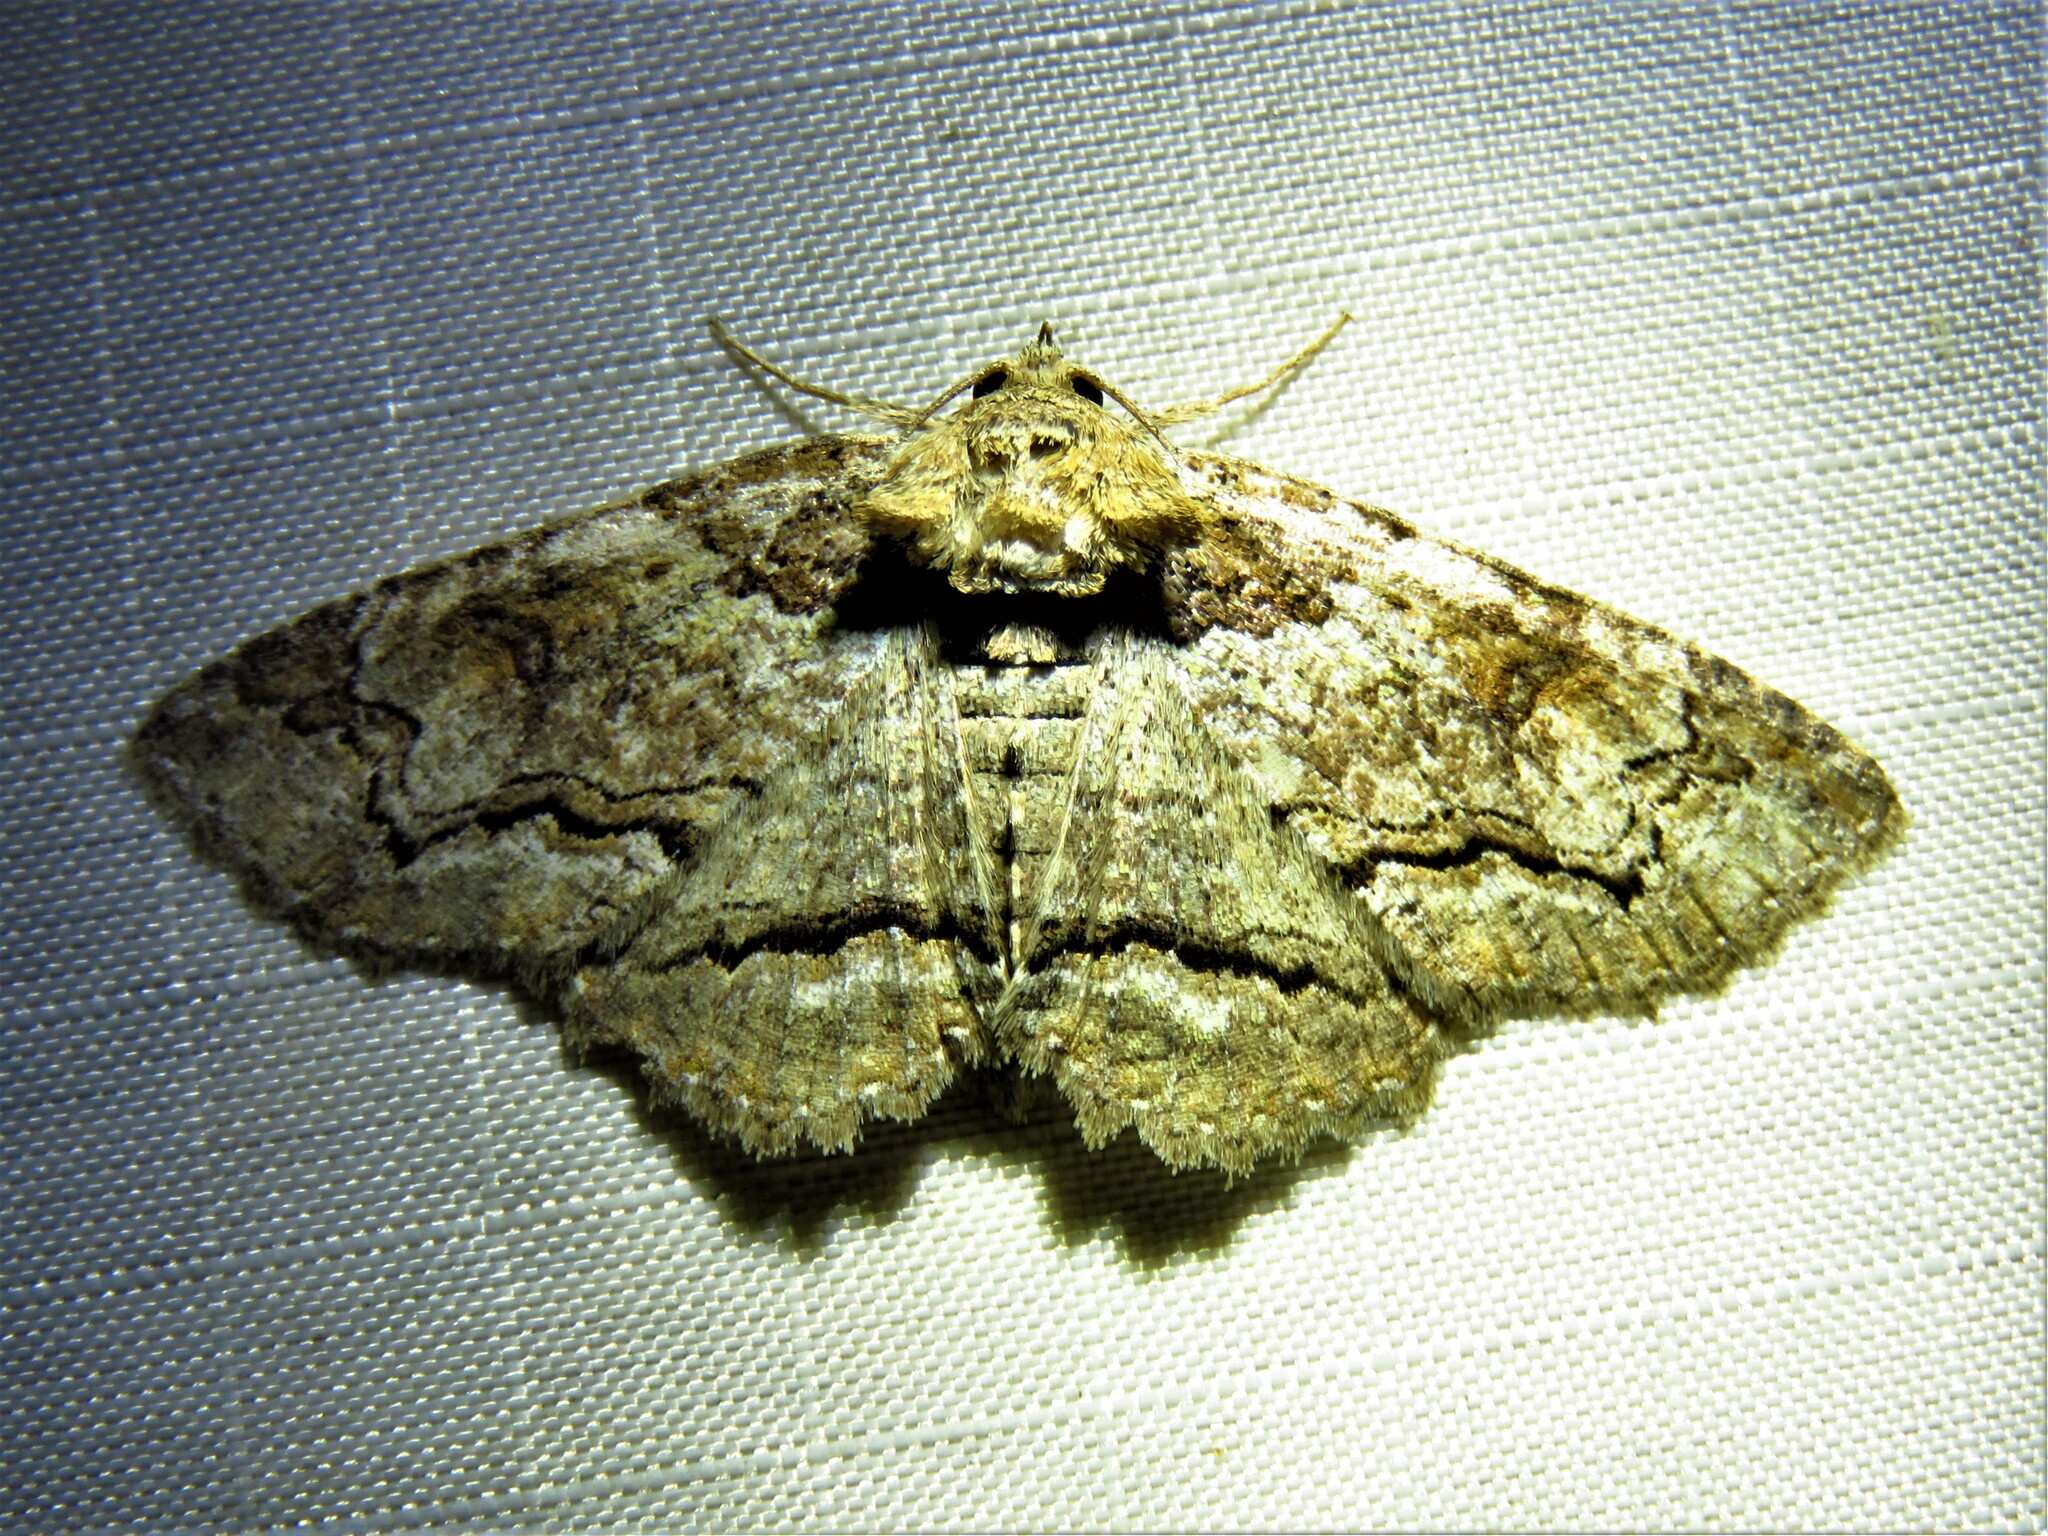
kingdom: Animalia
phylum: Arthropoda
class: Insecta
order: Lepidoptera
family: Erebidae
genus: Zale
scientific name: Zale edusina
